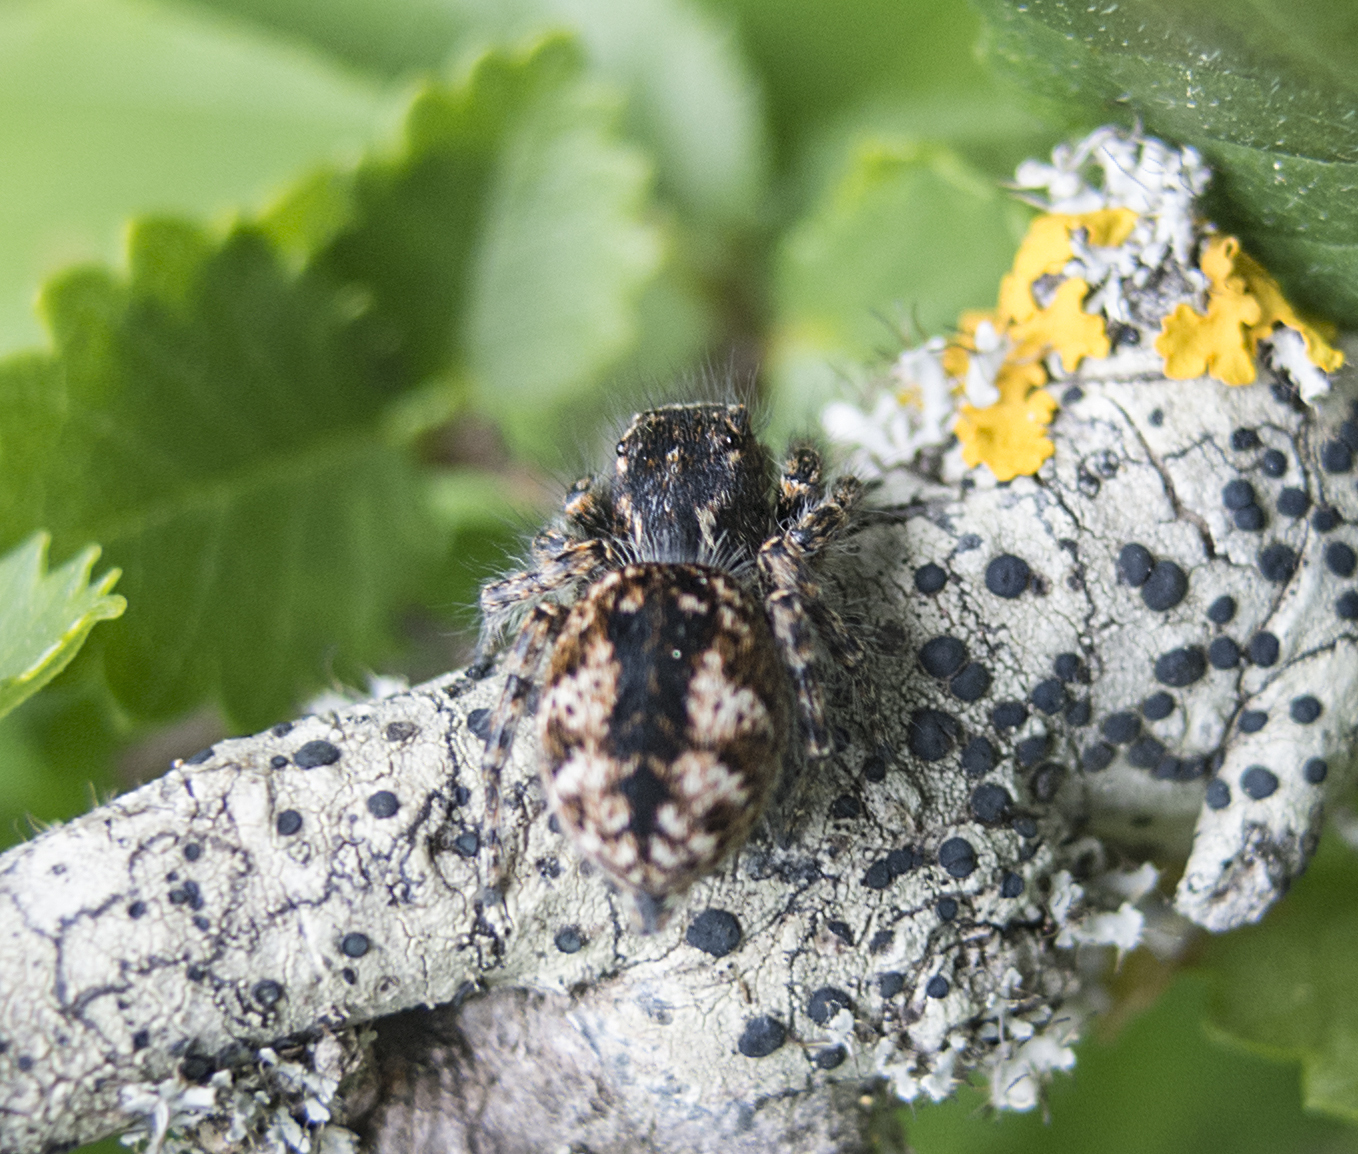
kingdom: Animalia
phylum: Arthropoda
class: Arachnida
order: Araneae
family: Salticidae
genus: Philaeus
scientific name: Philaeus chrysops
